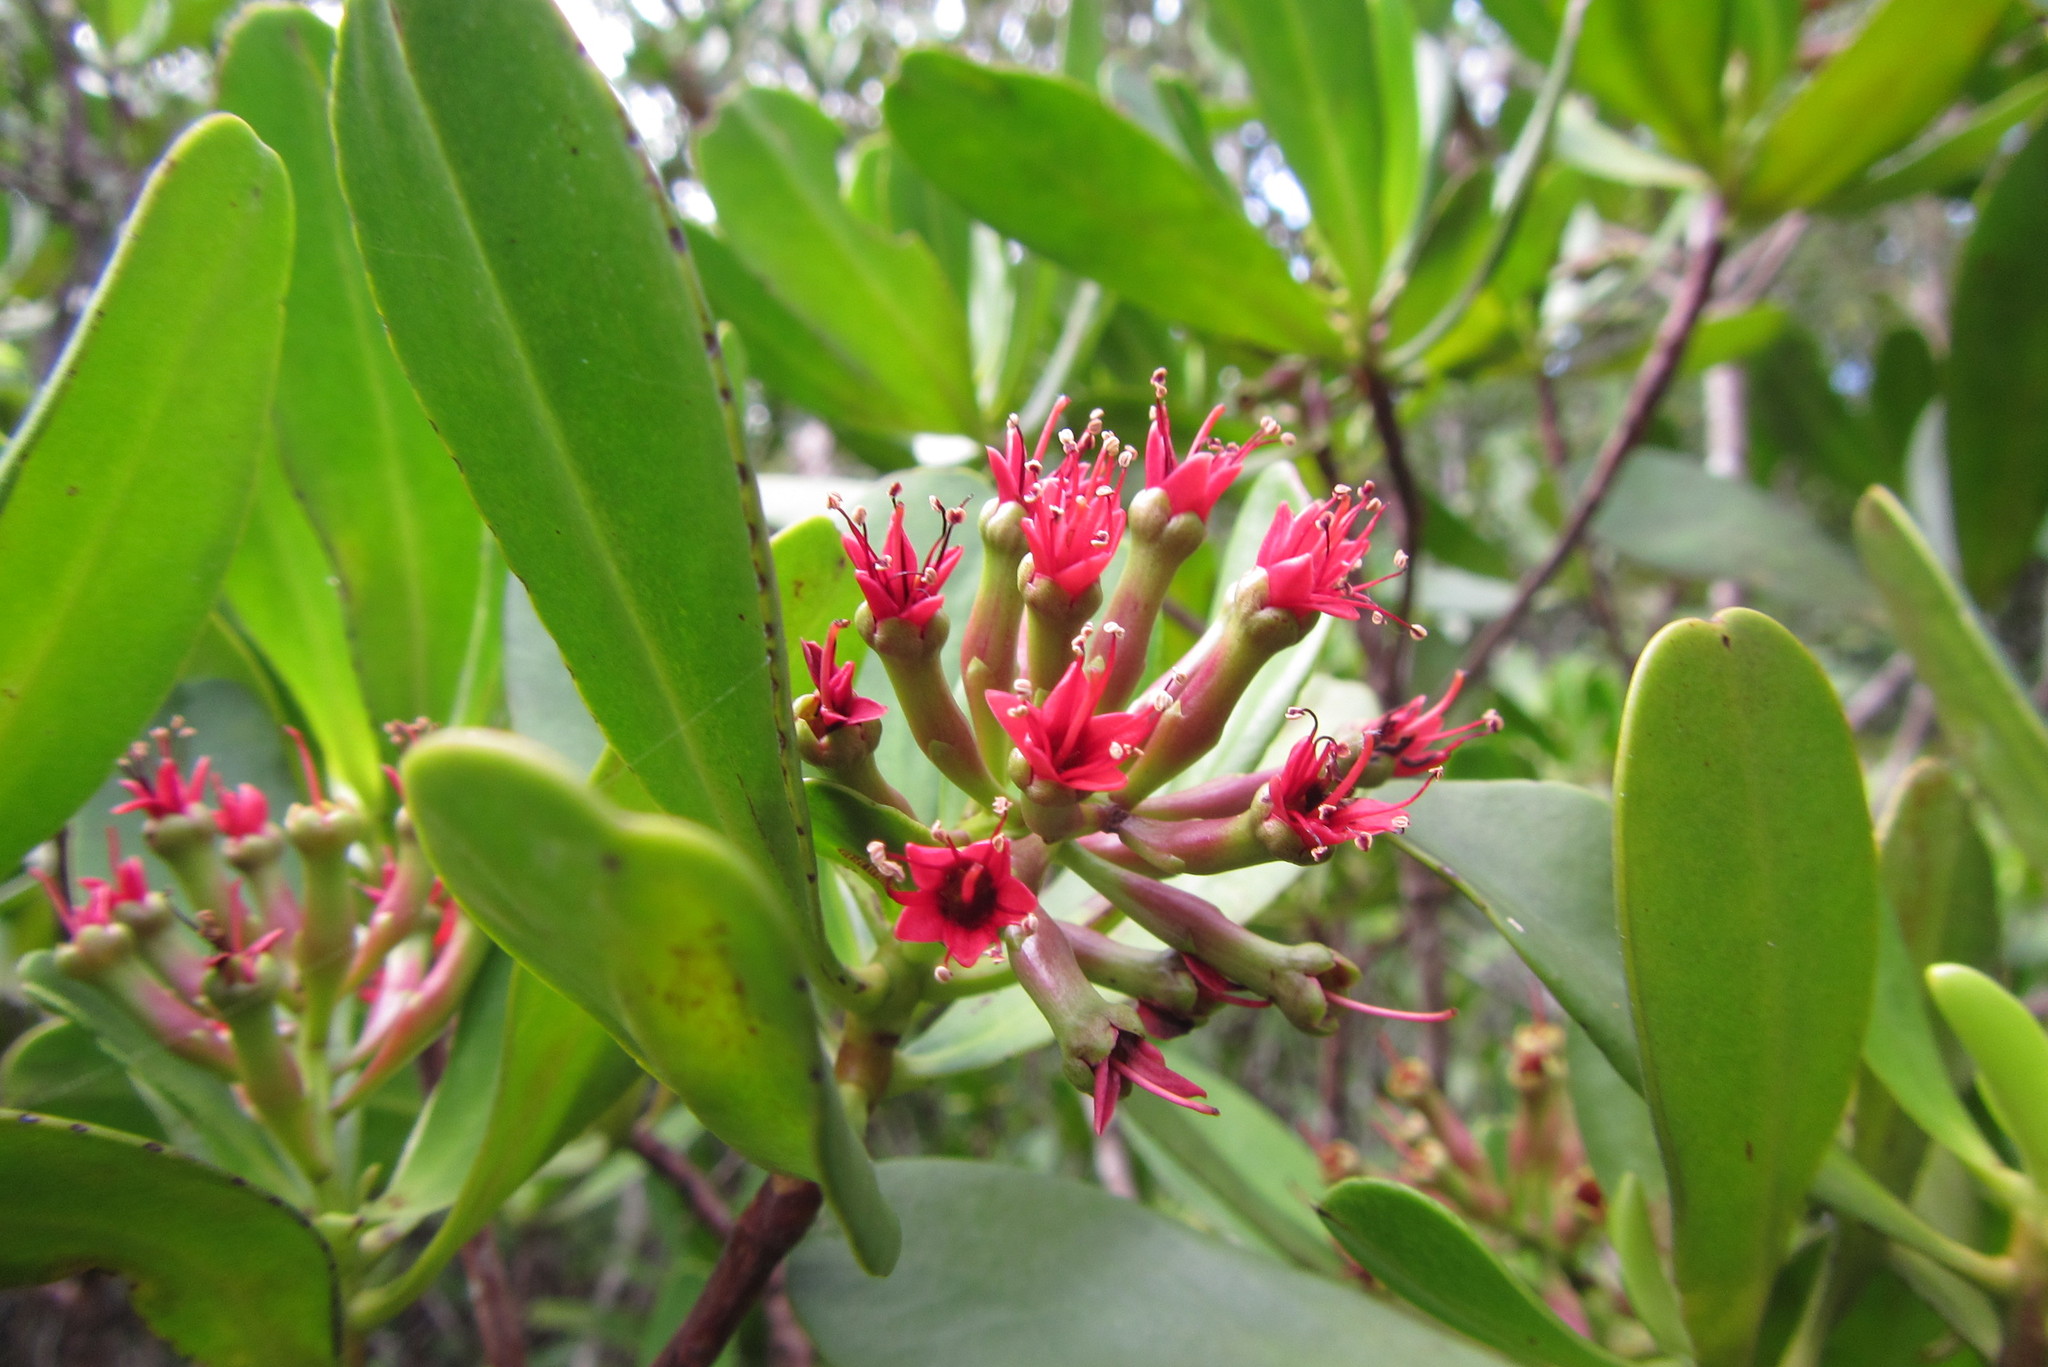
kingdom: Plantae
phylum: Tracheophyta
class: Magnoliopsida
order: Myrtales
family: Combretaceae
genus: Lumnitzera
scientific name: Lumnitzera littorea
